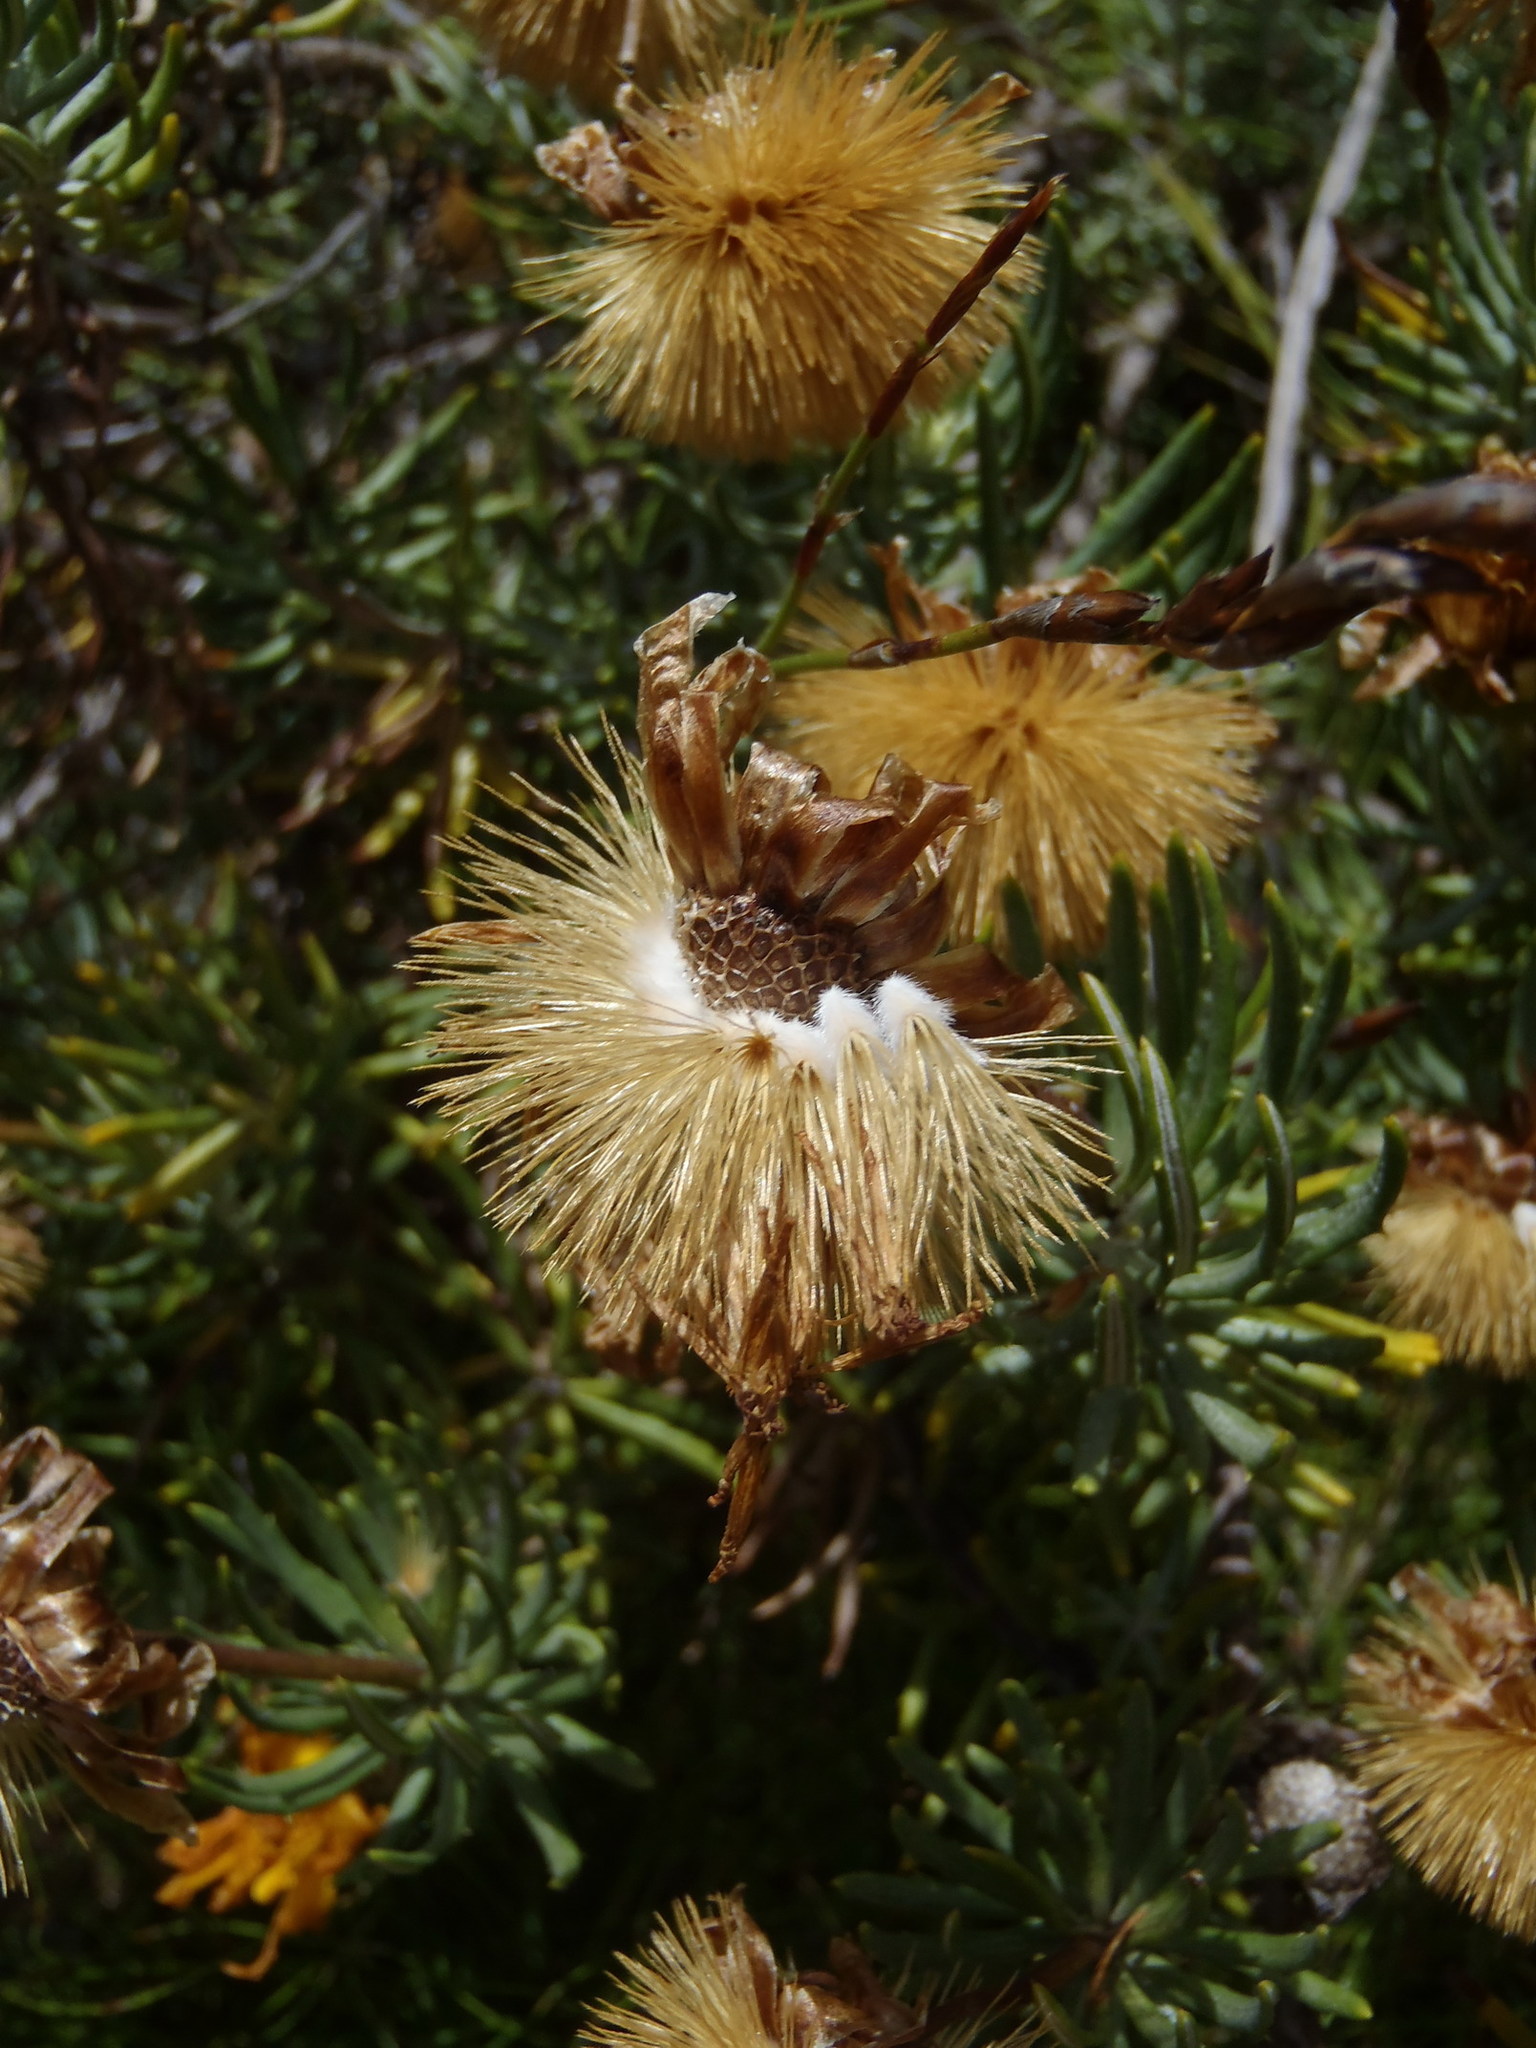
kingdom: Plantae
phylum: Tracheophyta
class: Magnoliopsida
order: Asterales
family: Asteraceae
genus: Heterolepis
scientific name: Heterolepis aliena
